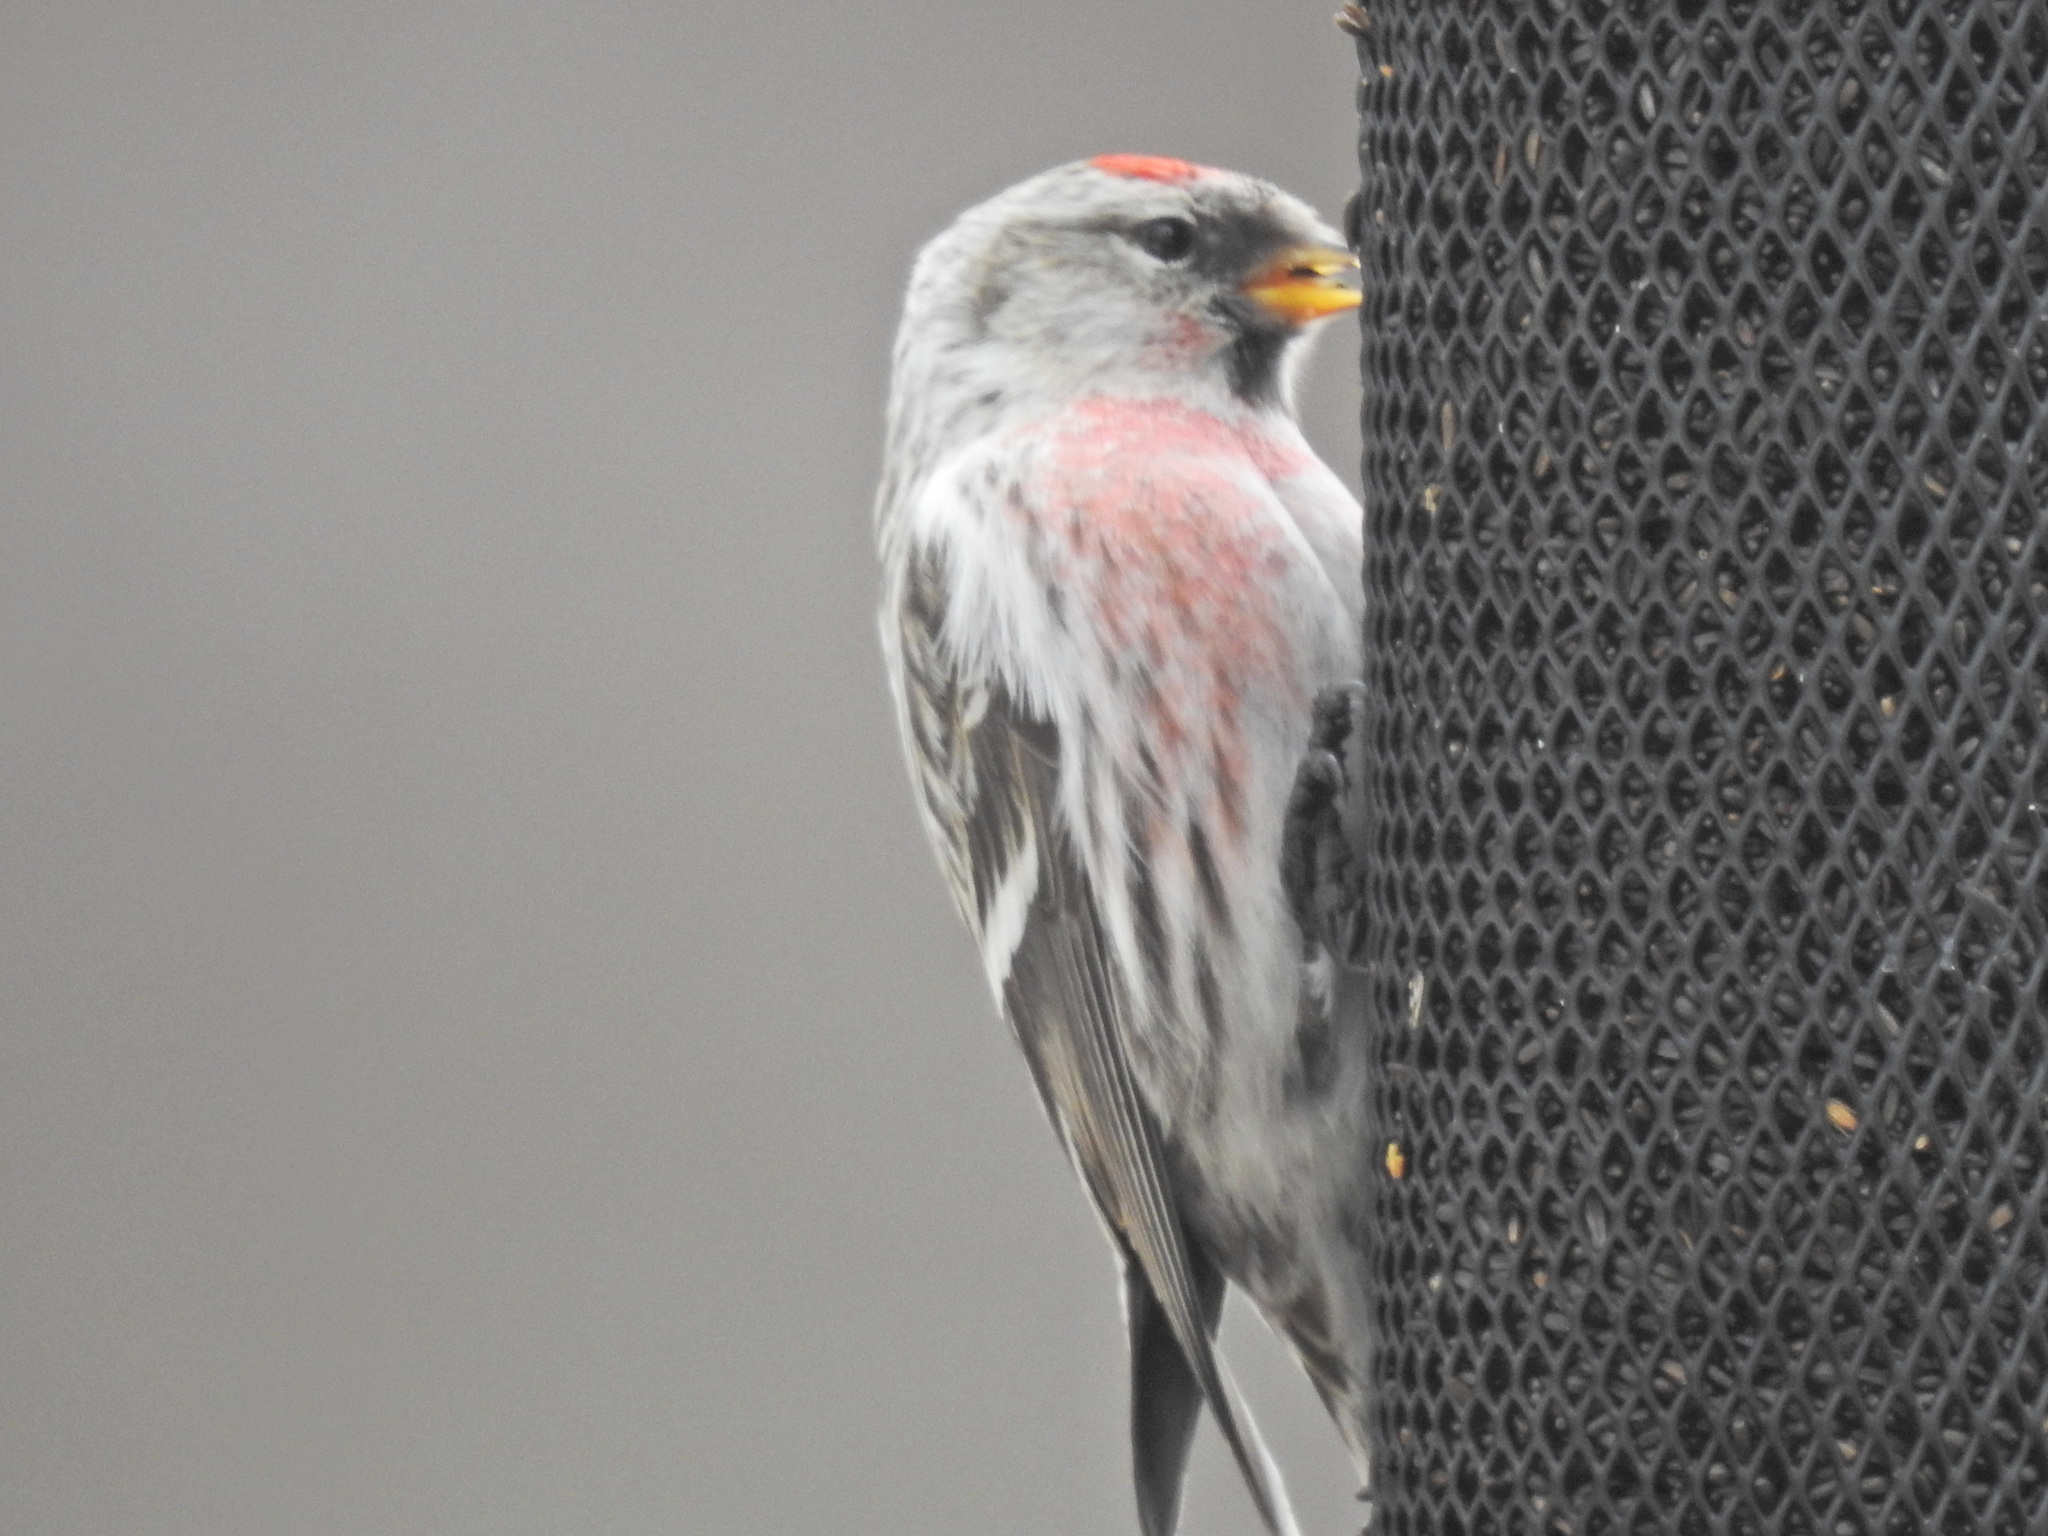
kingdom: Animalia
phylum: Chordata
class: Aves
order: Passeriformes
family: Fringillidae
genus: Acanthis
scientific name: Acanthis flammea
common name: Common redpoll
